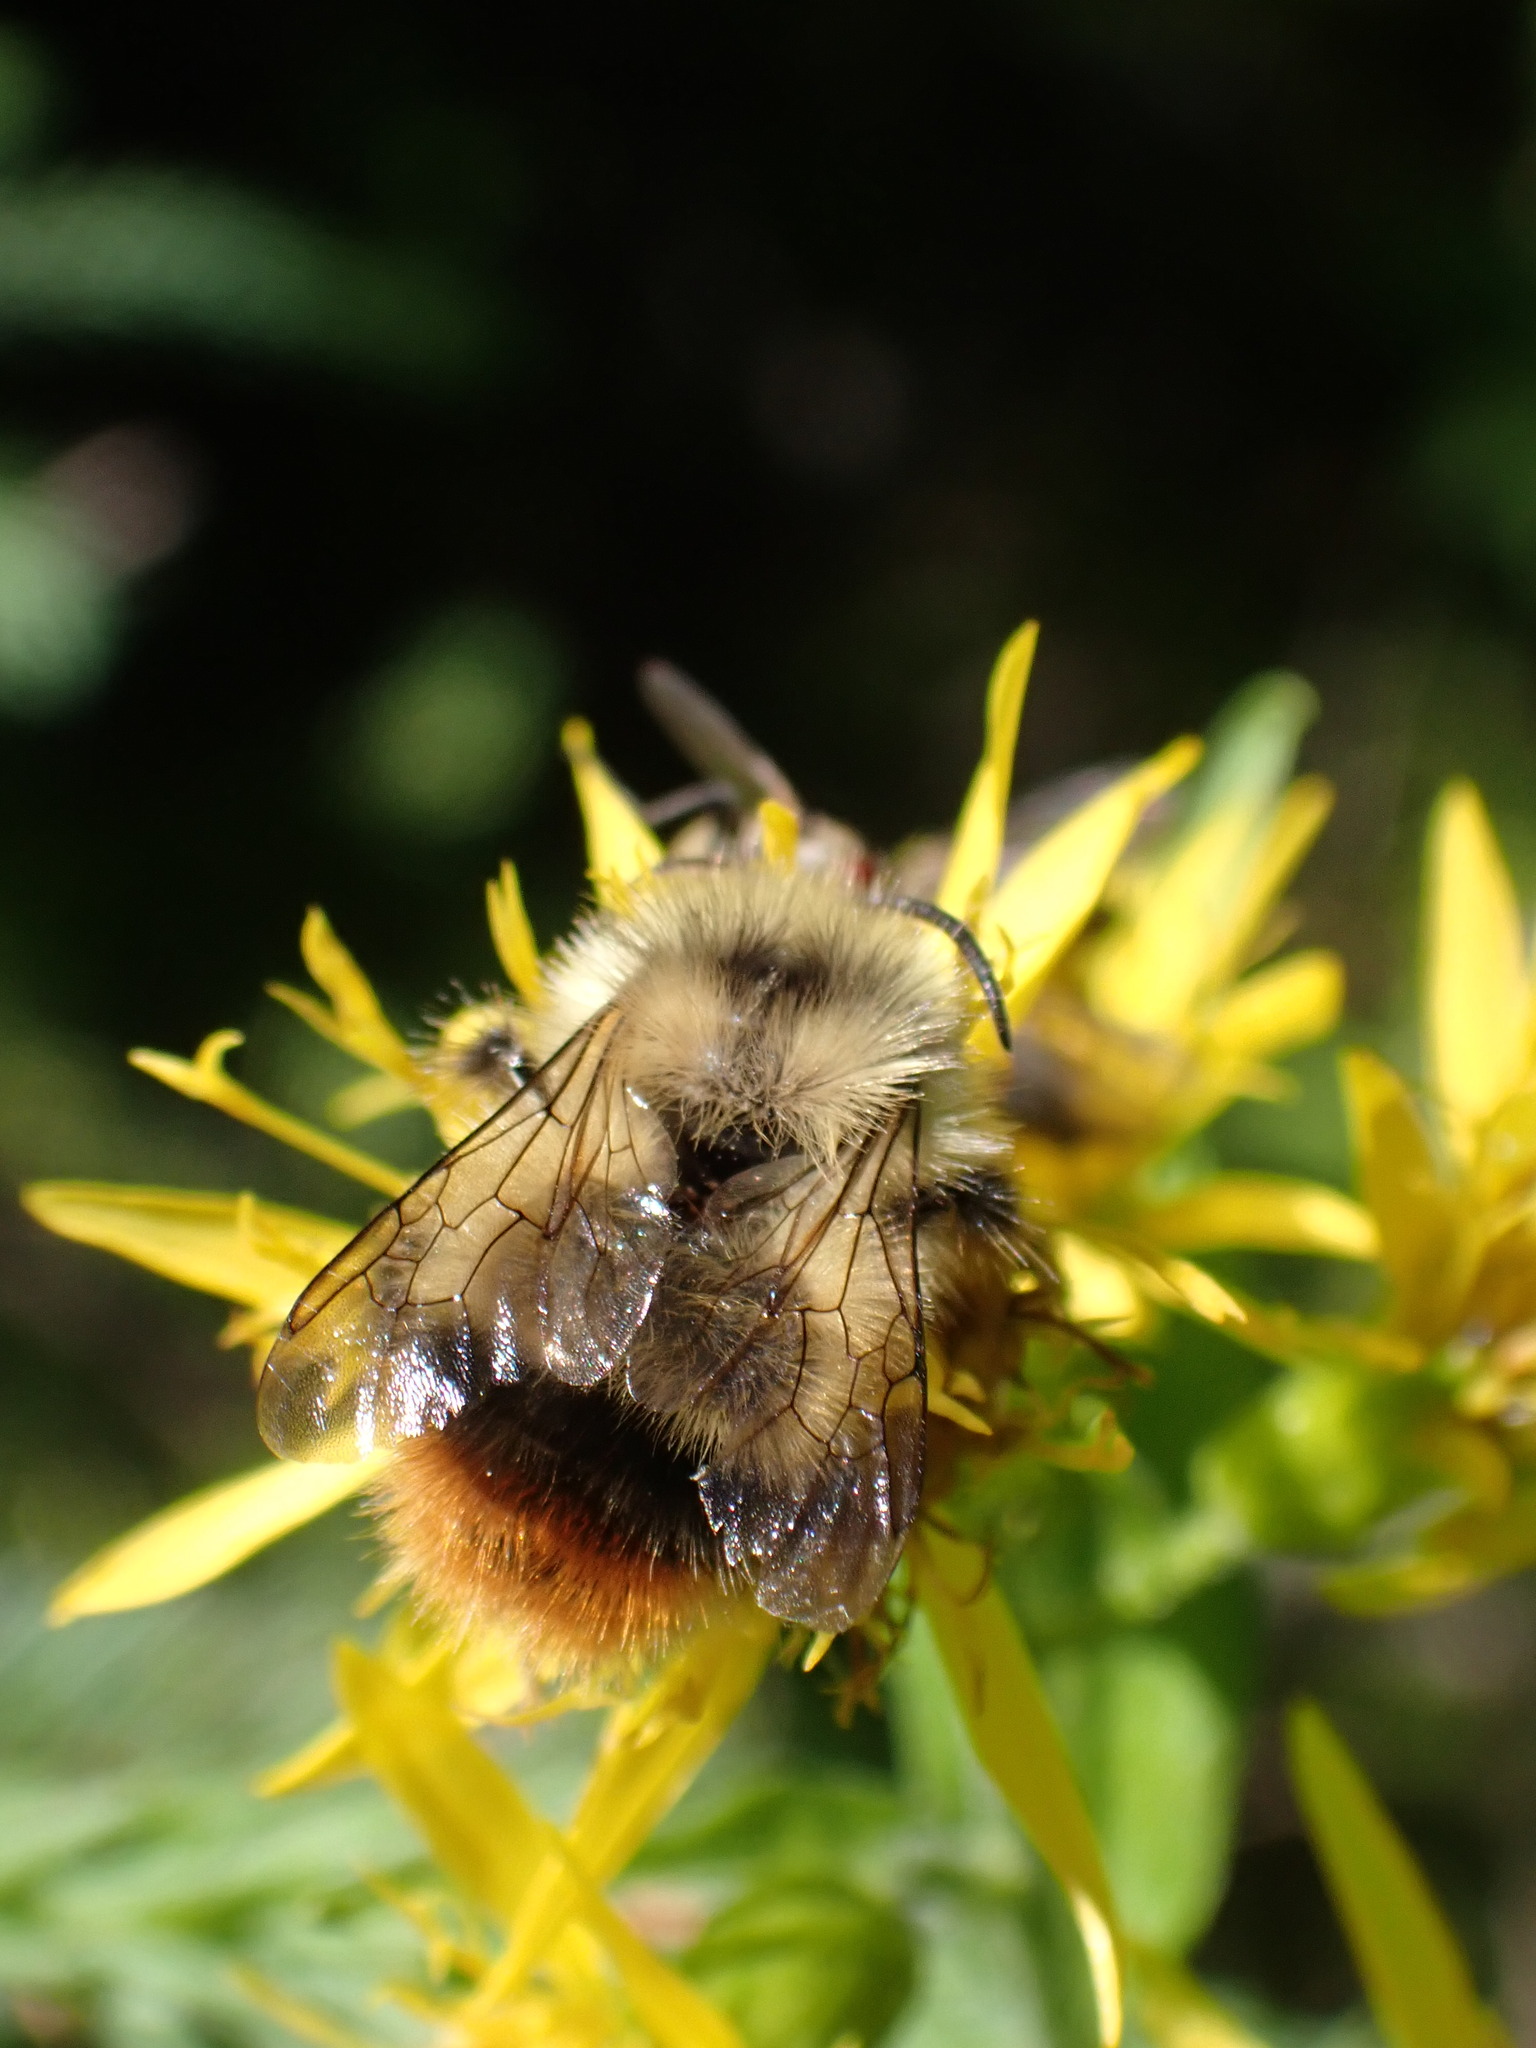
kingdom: Animalia
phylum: Arthropoda
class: Insecta
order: Hymenoptera
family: Apidae
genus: Bombus
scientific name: Bombus frigidus
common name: Frigid bumble bee
